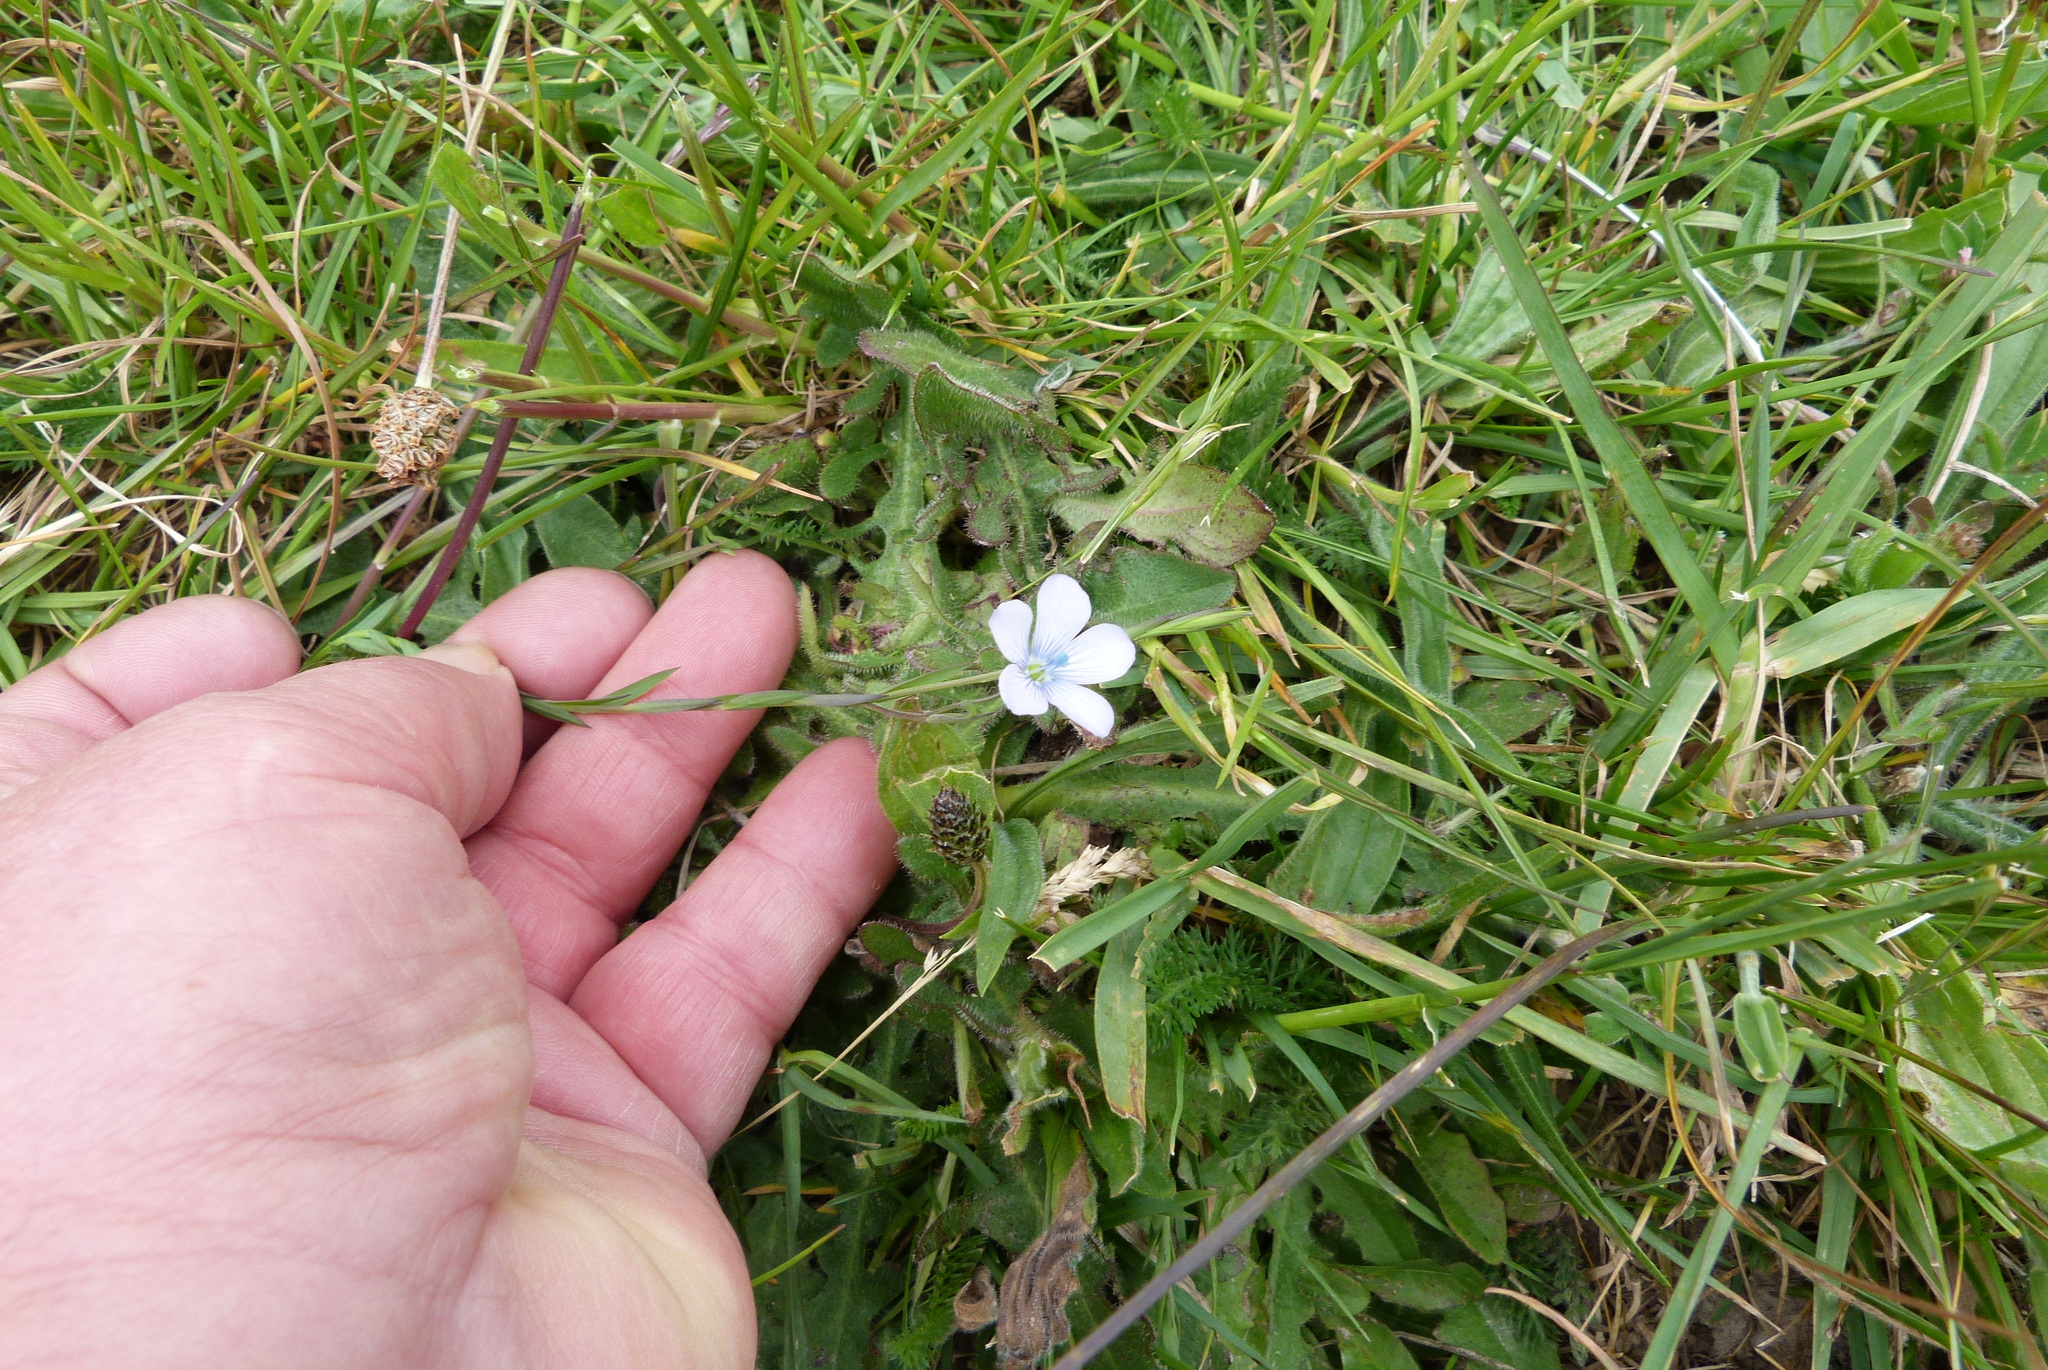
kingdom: Plantae
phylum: Tracheophyta
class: Magnoliopsida
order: Malpighiales
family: Linaceae
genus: Linum
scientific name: Linum bienne
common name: Pale flax
